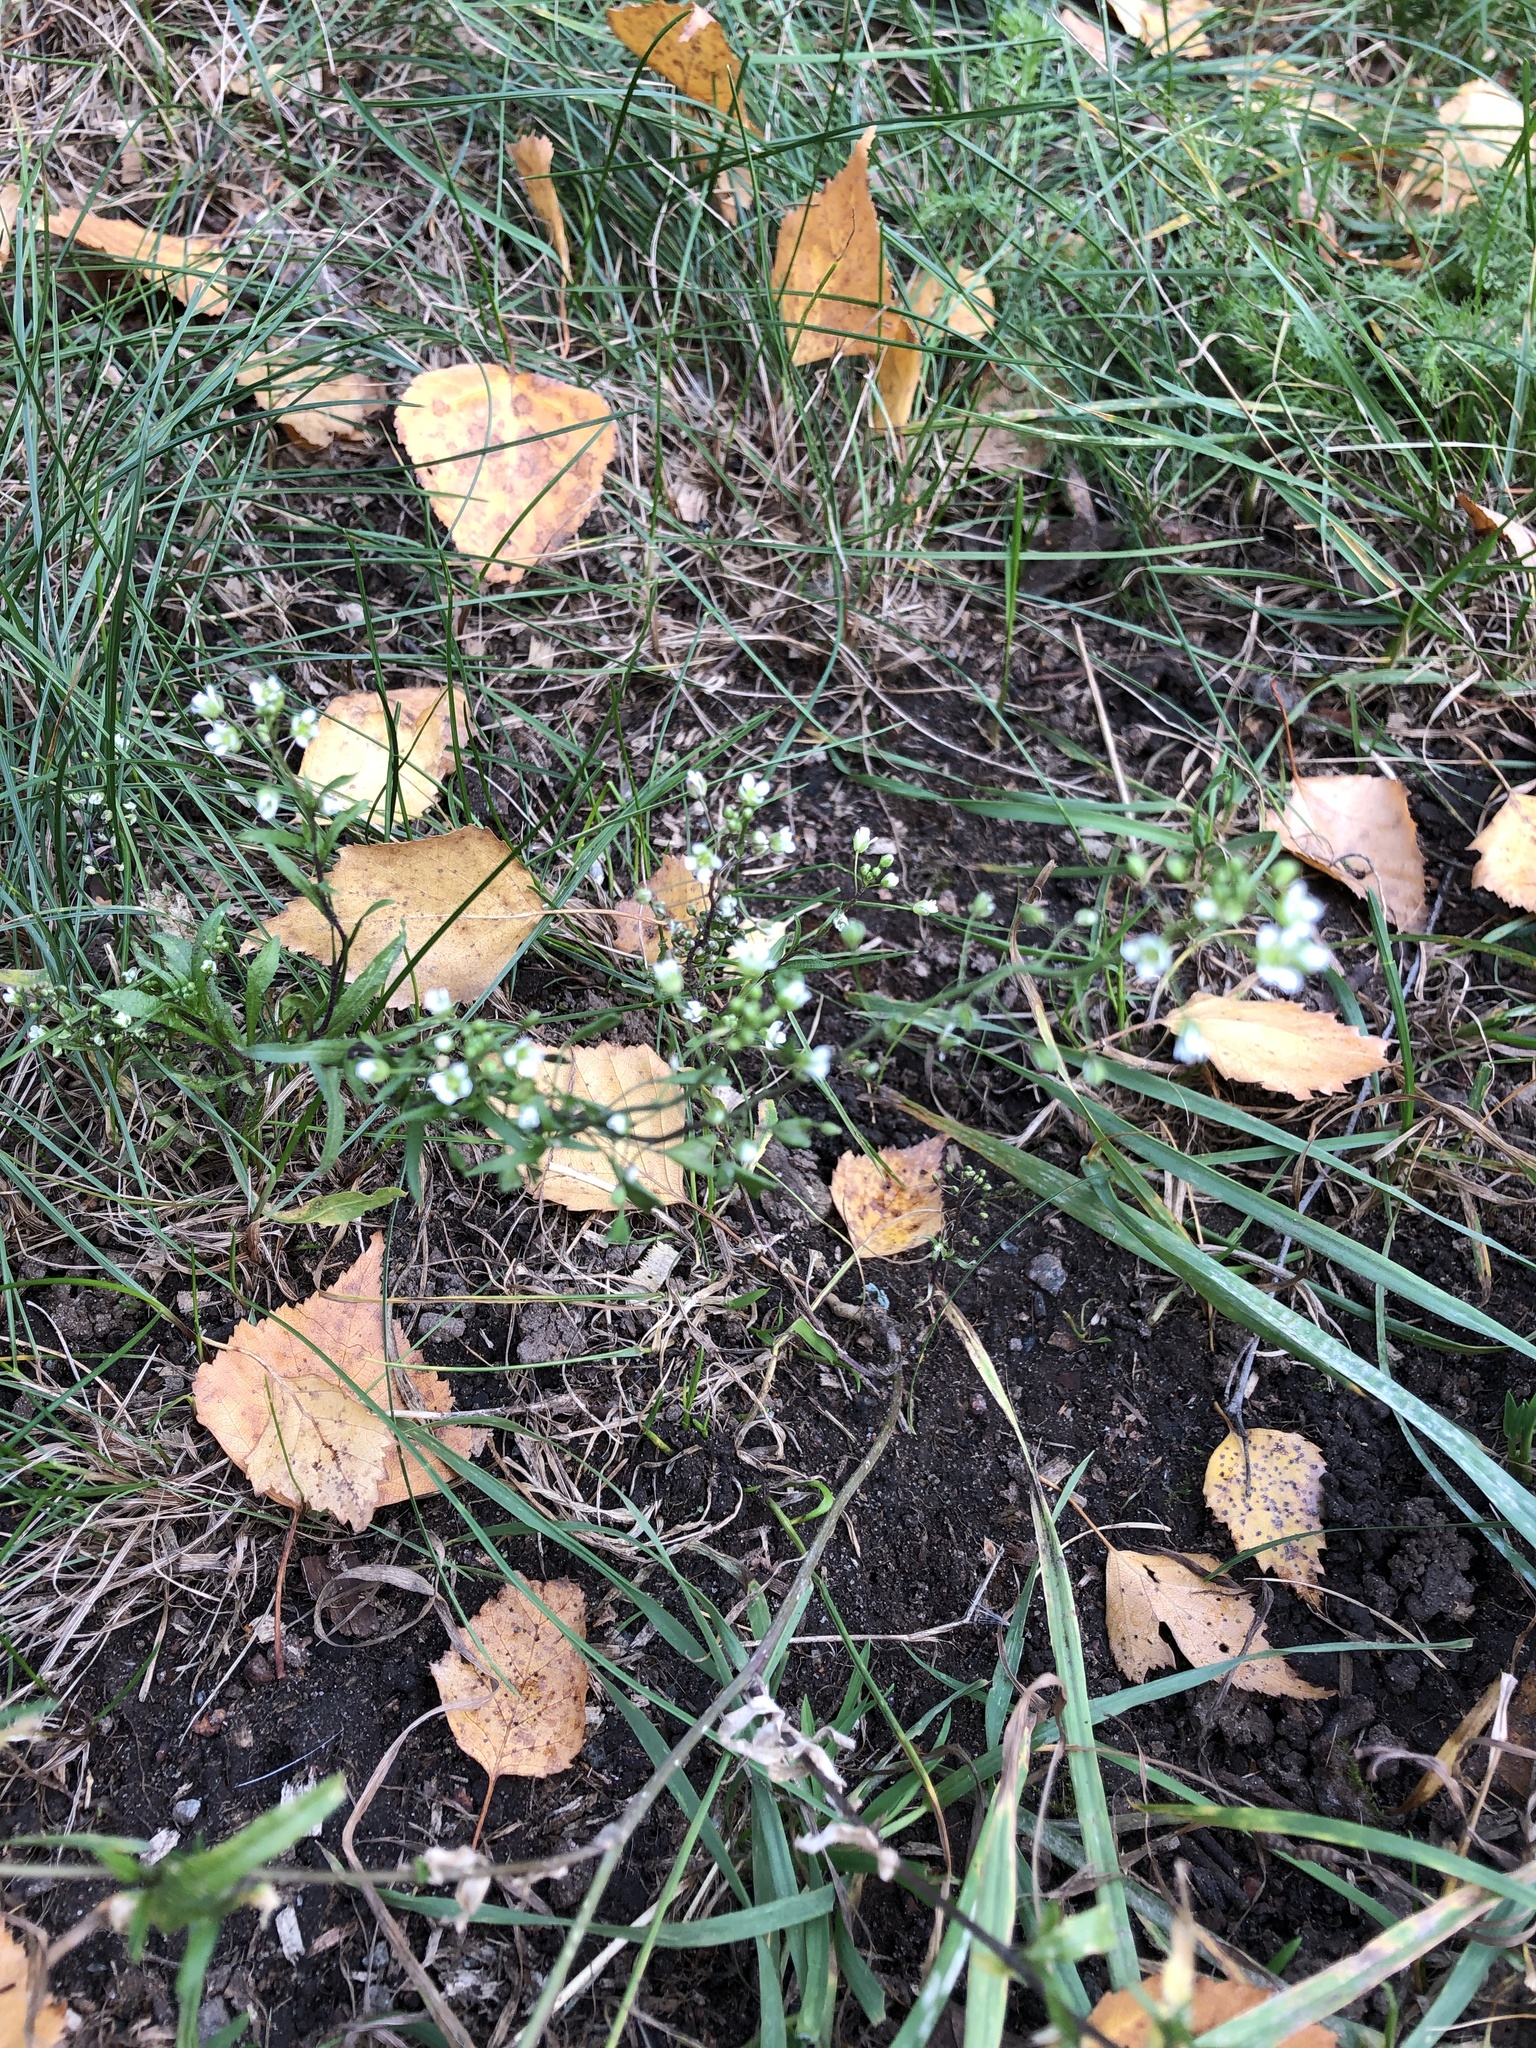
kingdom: Plantae
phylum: Tracheophyta
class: Magnoliopsida
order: Brassicales
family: Brassicaceae
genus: Capsella
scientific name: Capsella bursa-pastoris
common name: Shepherd's purse
